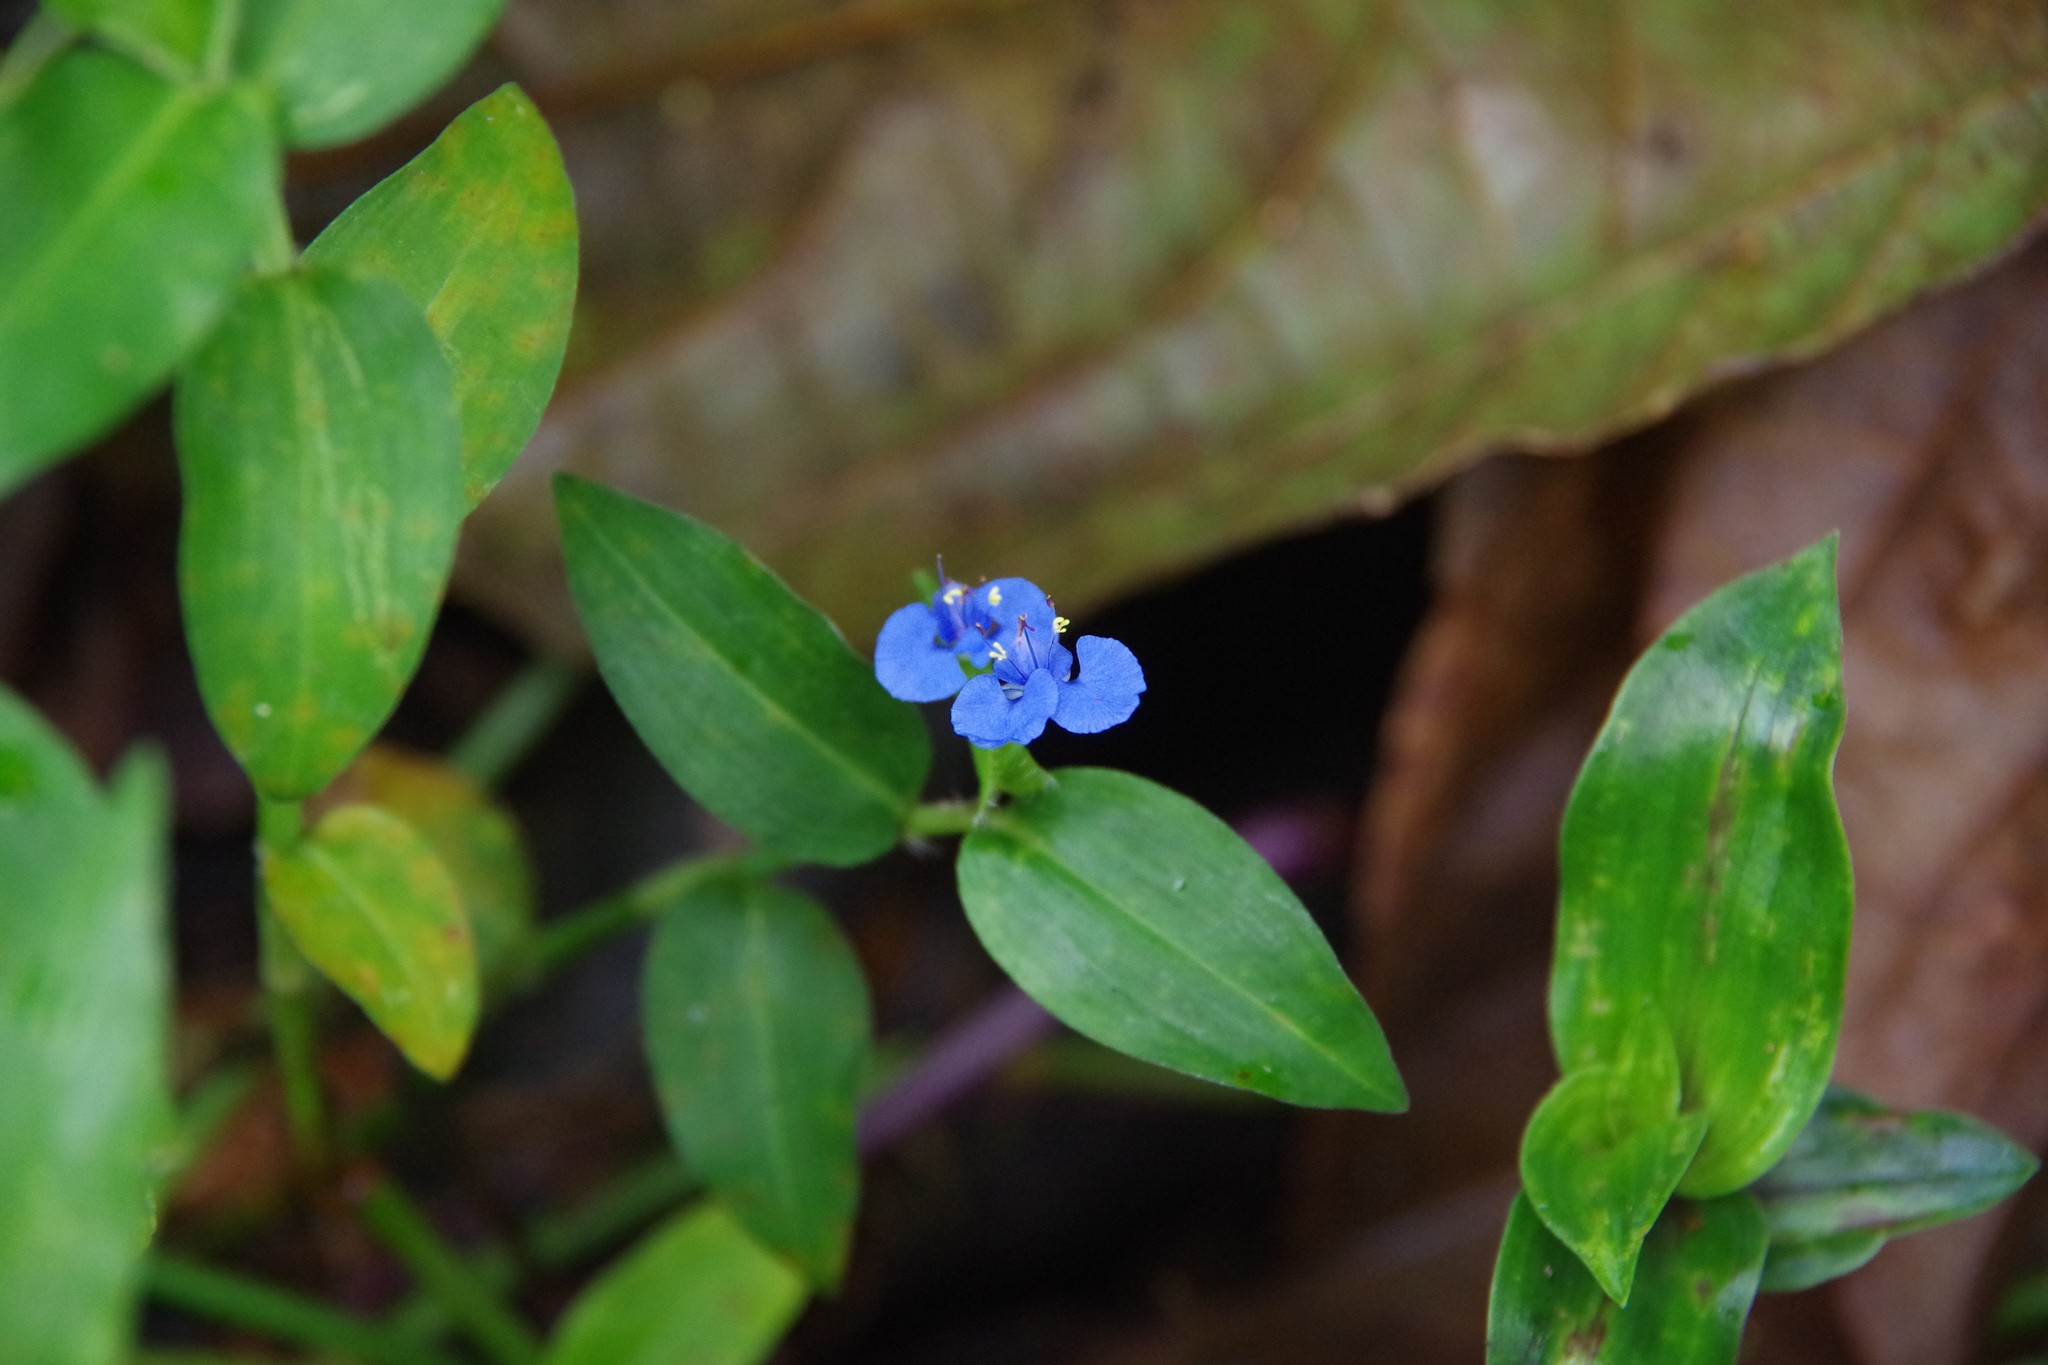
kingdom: Plantae
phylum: Tracheophyta
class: Liliopsida
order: Commelinales
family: Commelinaceae
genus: Commelina
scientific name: Commelina diffusa
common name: Climbing dayflower
